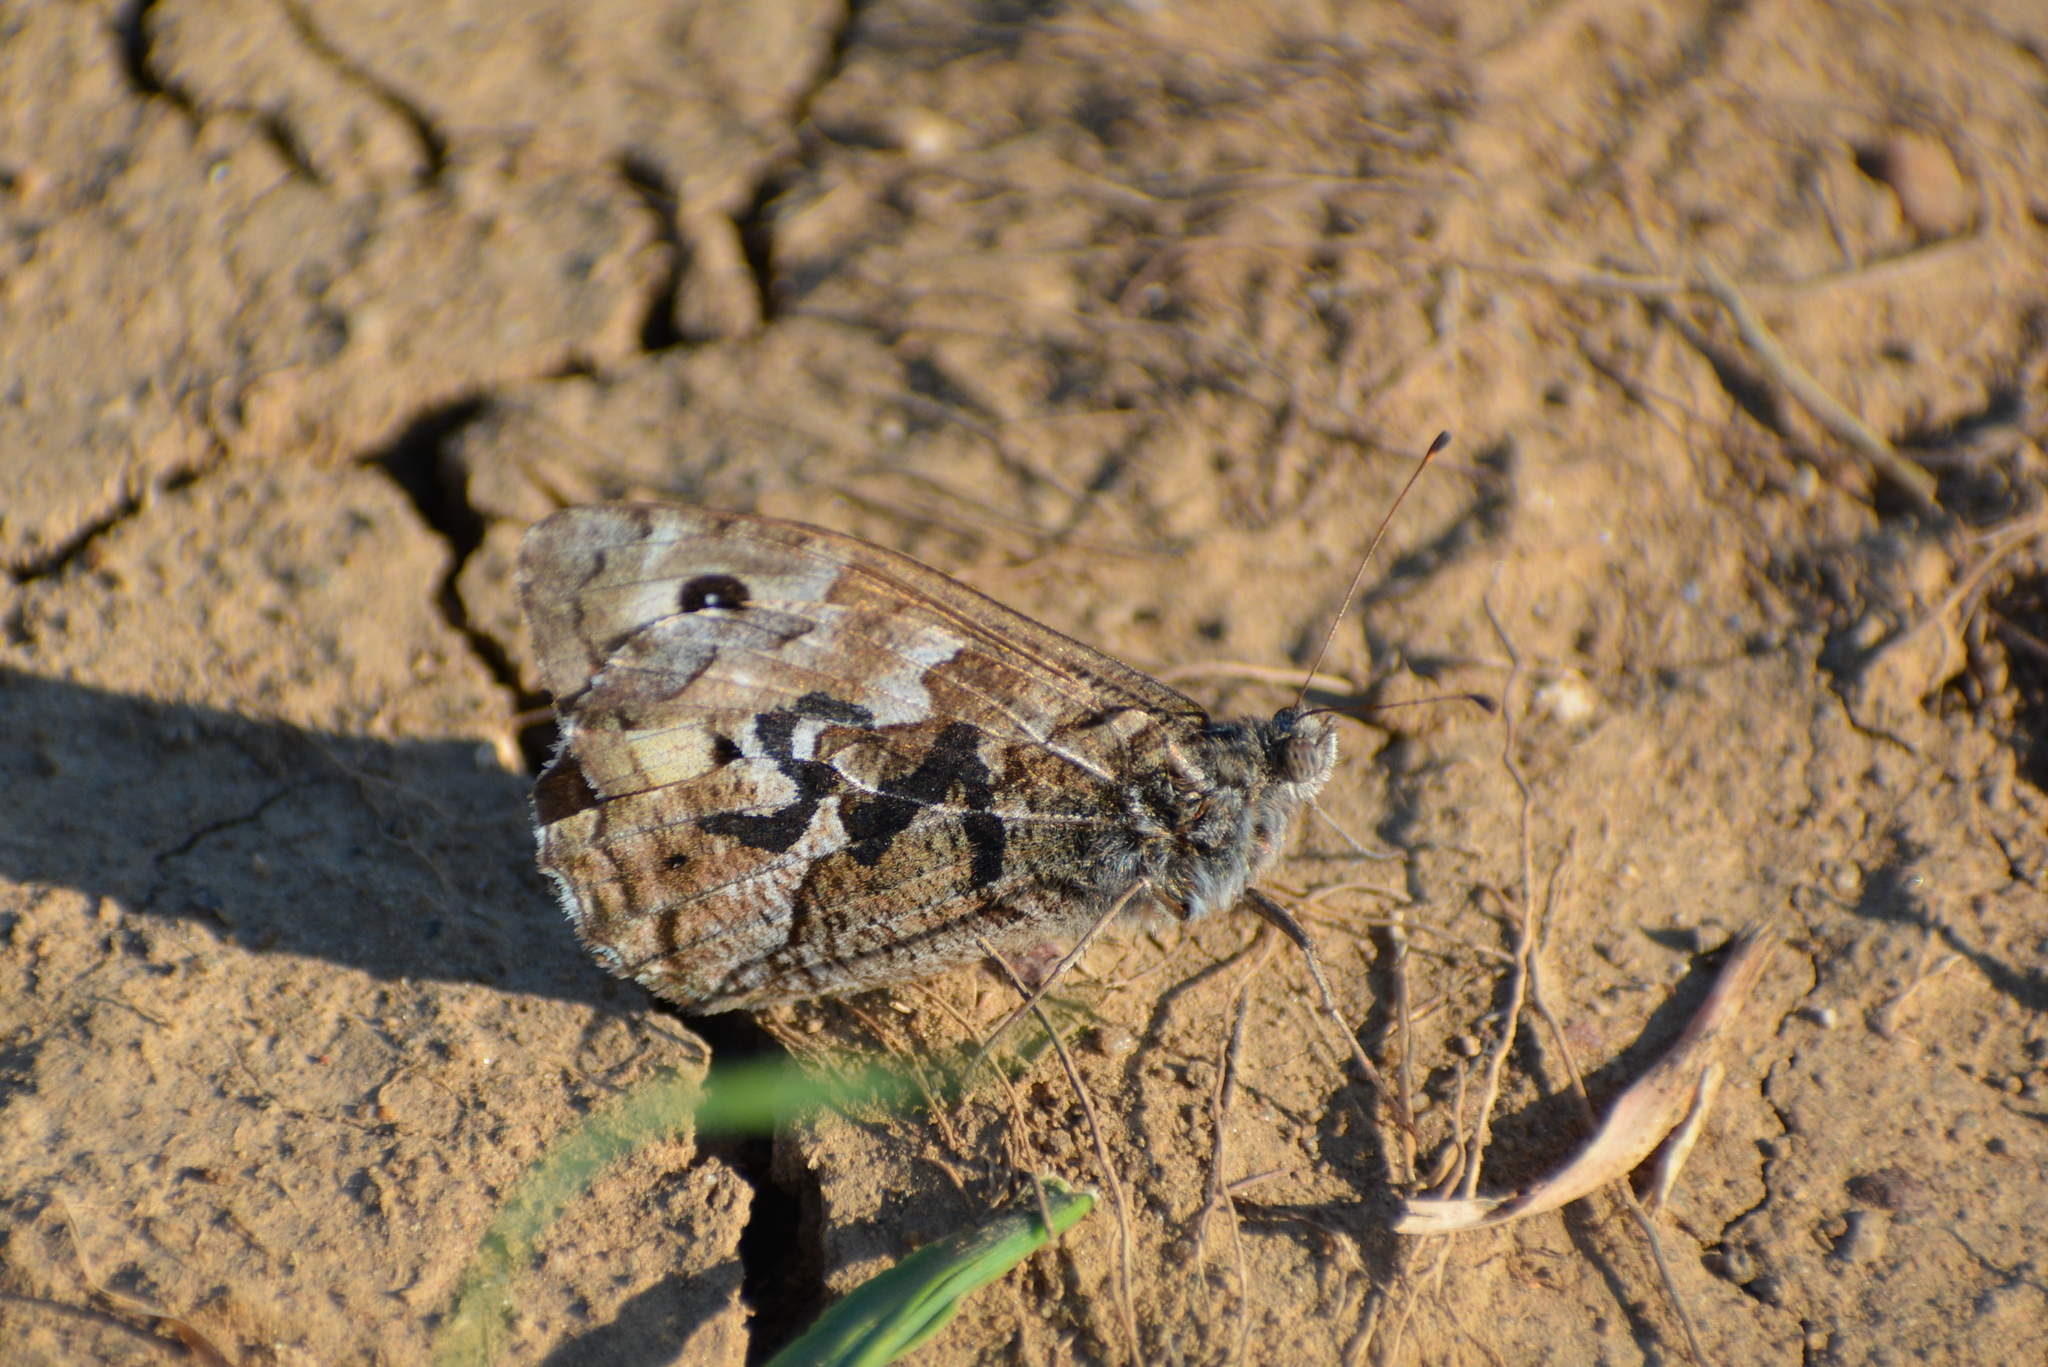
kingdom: Animalia
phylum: Arthropoda
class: Insecta
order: Lepidoptera
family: Nymphalidae
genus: Hipparchia
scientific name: Hipparchia semele
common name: Grayling
